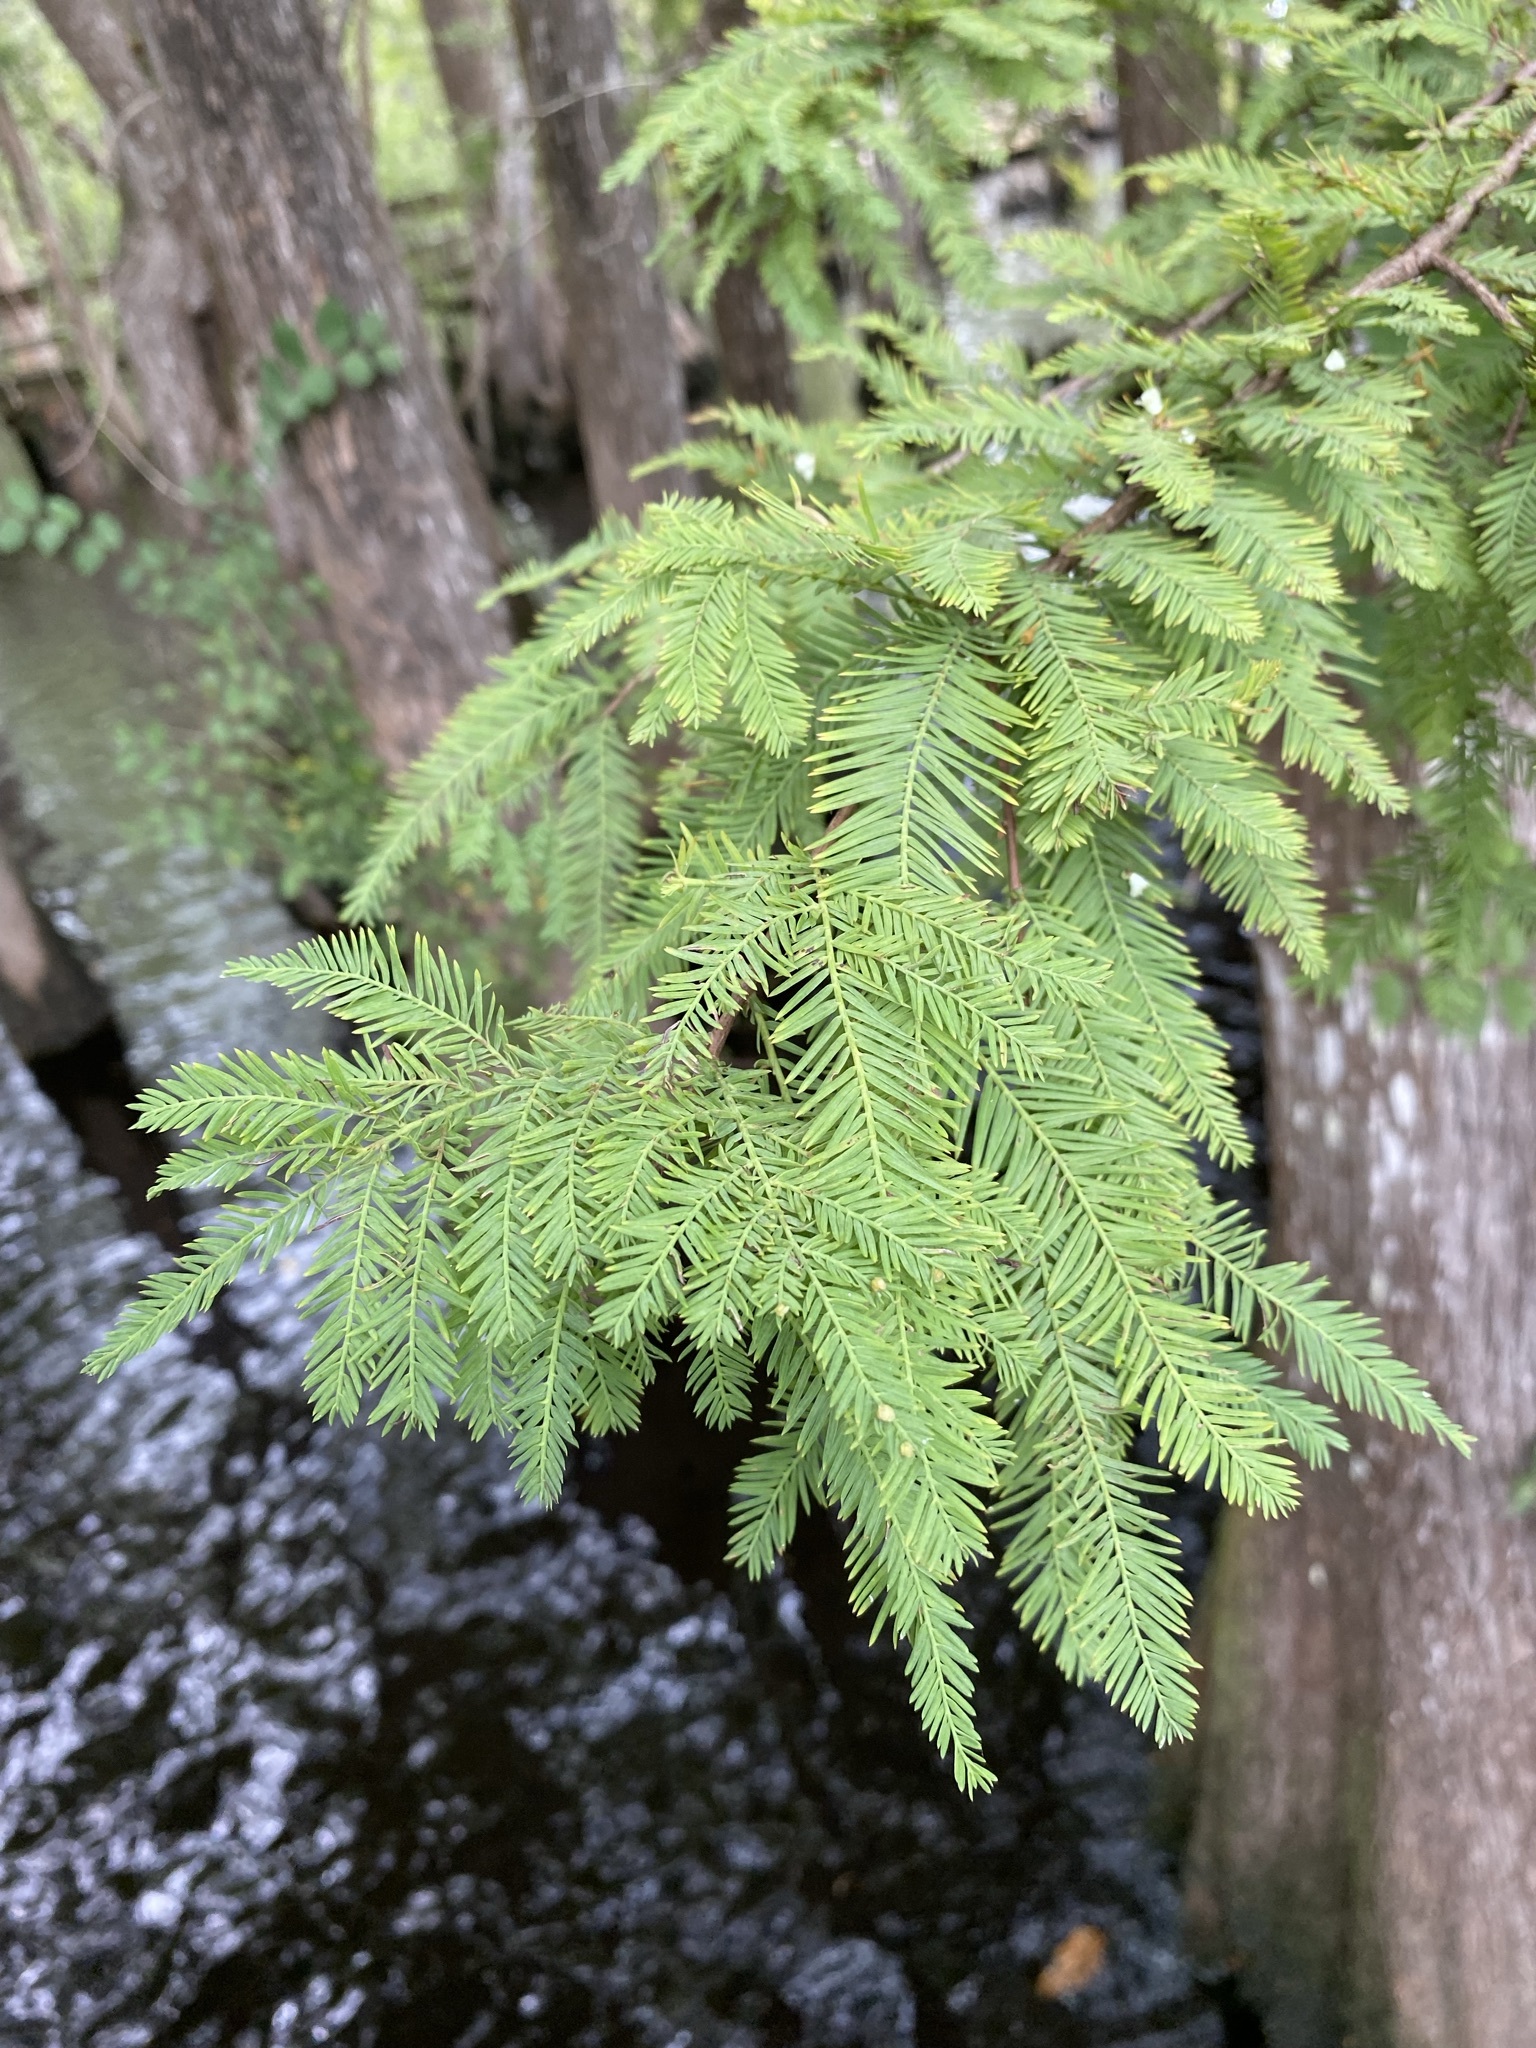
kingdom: Plantae
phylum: Tracheophyta
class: Pinopsida
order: Pinales
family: Cupressaceae
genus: Taxodium
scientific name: Taxodium distichum
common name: Bald cypress
